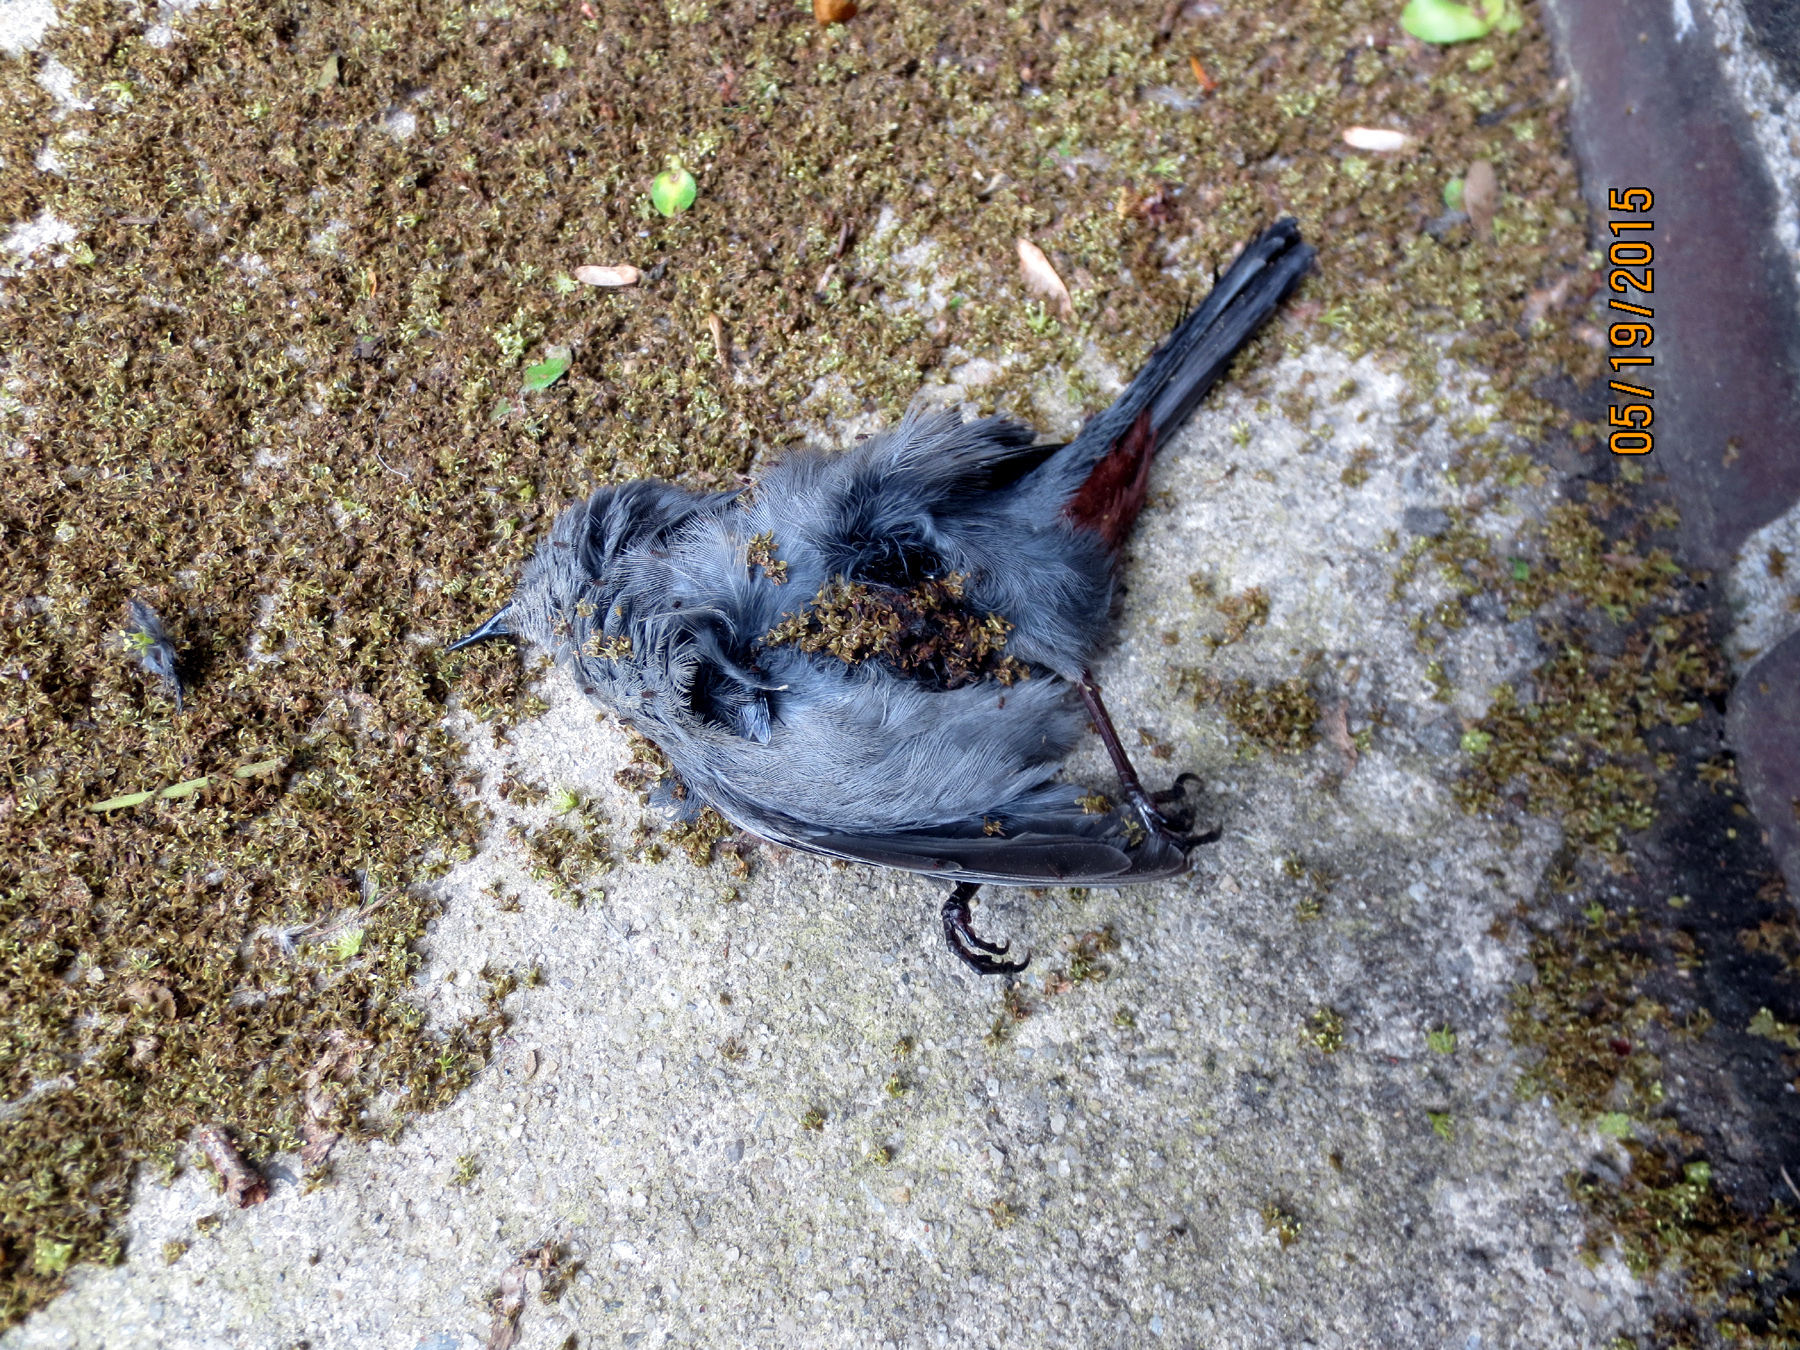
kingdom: Animalia
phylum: Chordata
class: Aves
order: Passeriformes
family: Mimidae
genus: Dumetella
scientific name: Dumetella carolinensis
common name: Gray catbird
